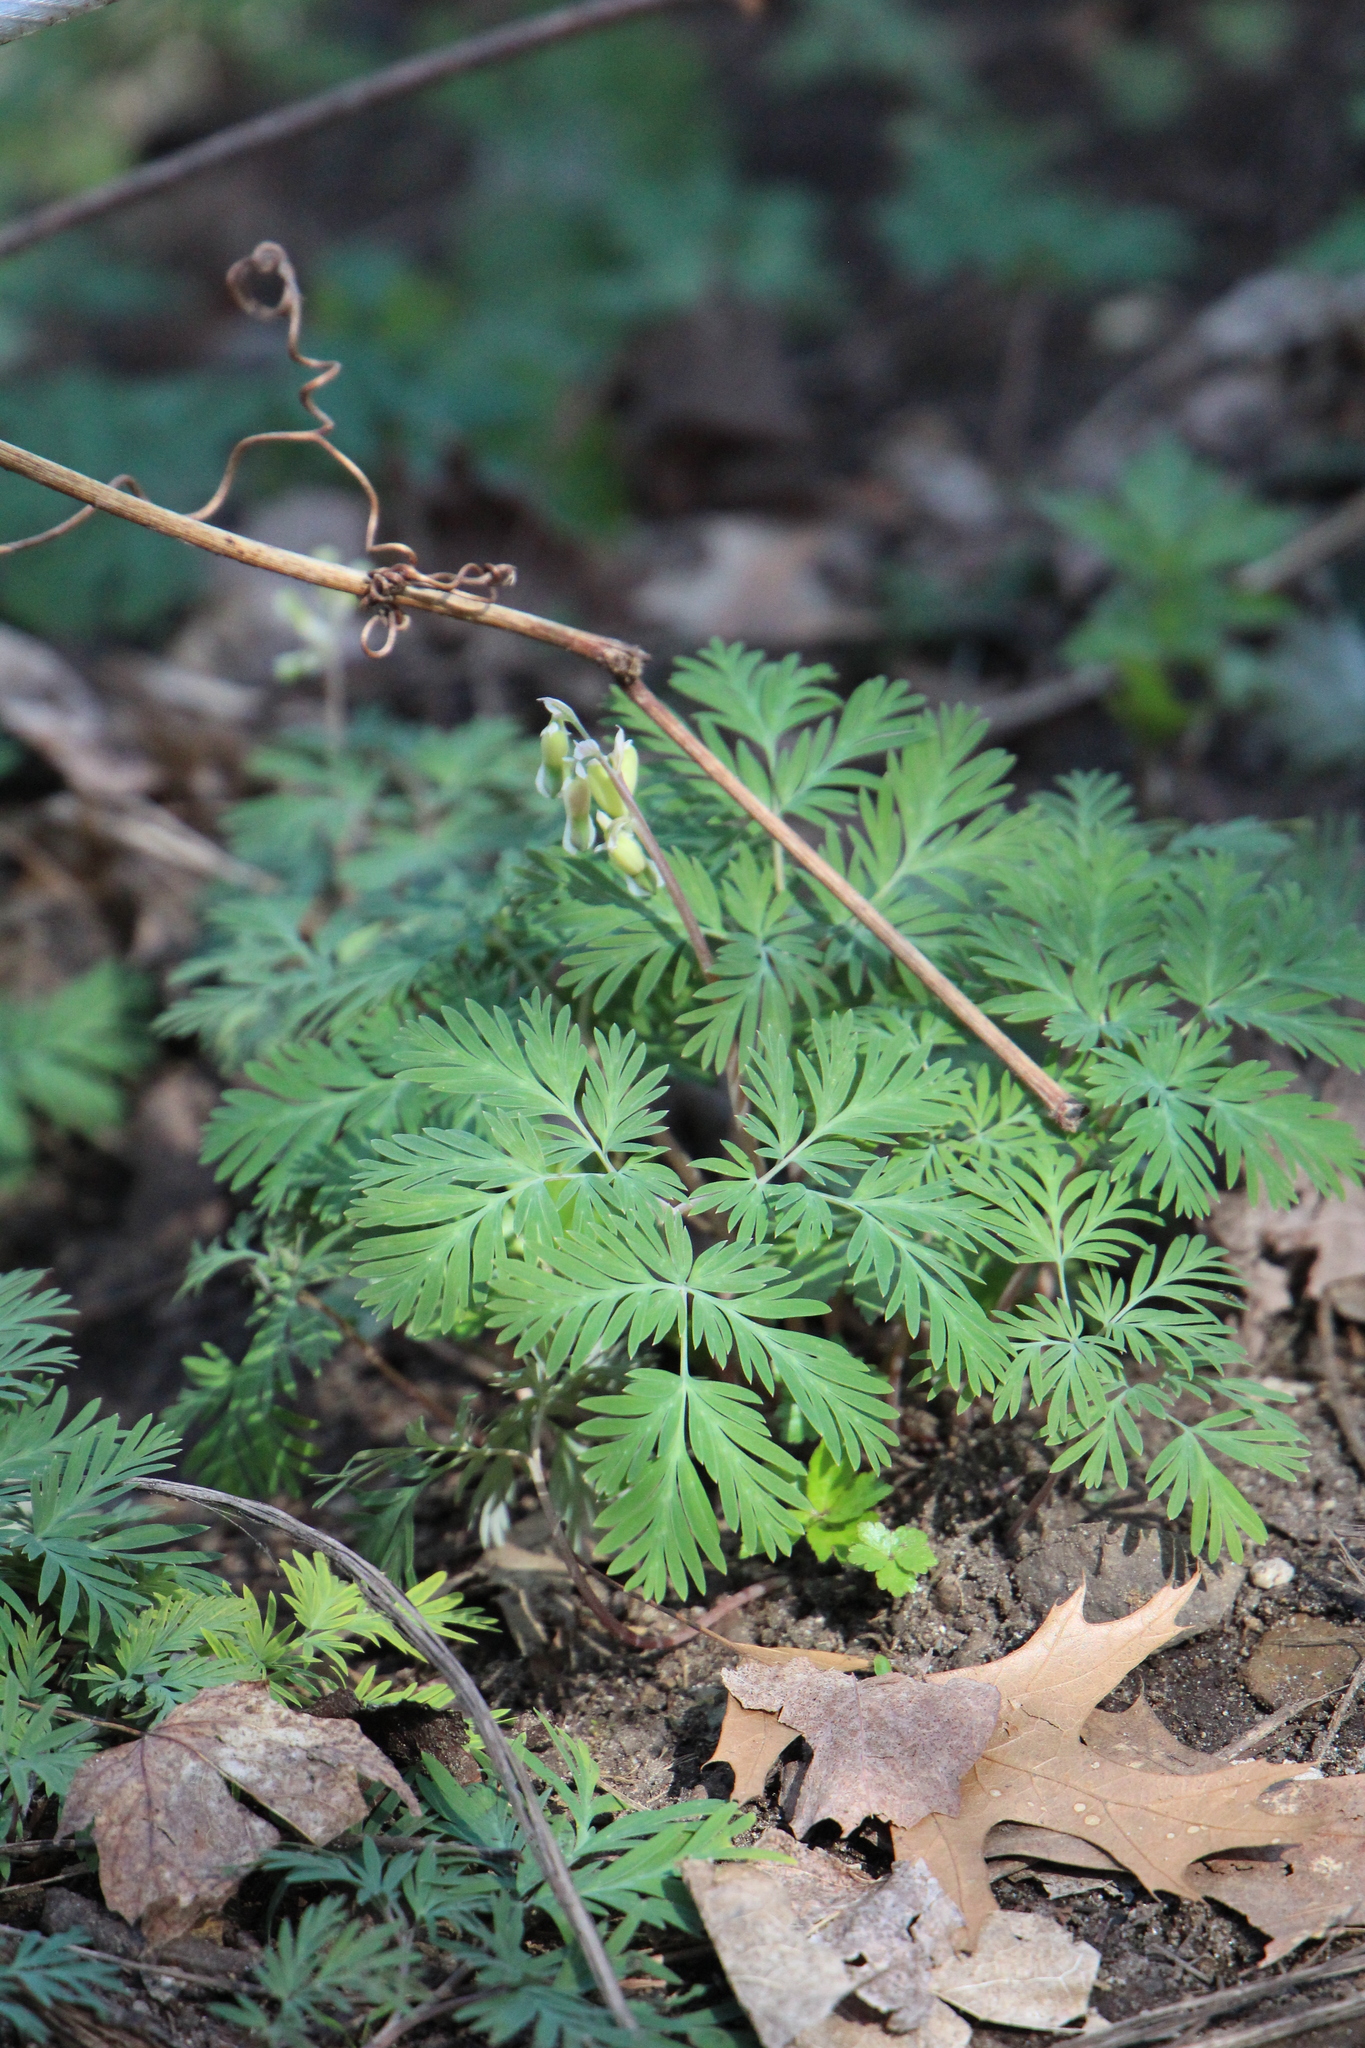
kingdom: Plantae
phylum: Tracheophyta
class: Magnoliopsida
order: Ranunculales
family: Papaveraceae
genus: Dicentra
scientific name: Dicentra cucullaria
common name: Dutchman's breeches
